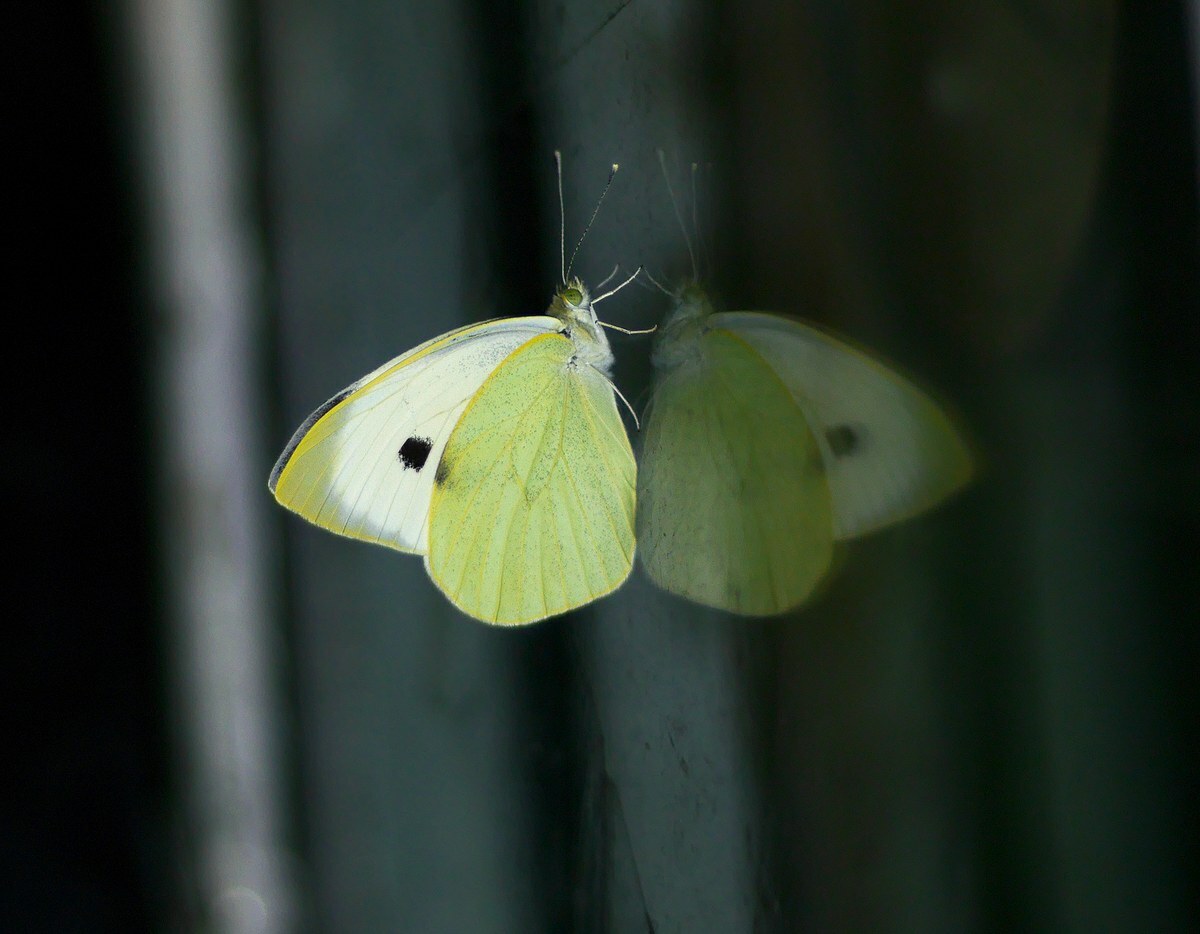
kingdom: Animalia
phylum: Arthropoda
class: Insecta
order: Lepidoptera
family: Pieridae
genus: Pieris
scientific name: Pieris brassicae
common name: Large white
